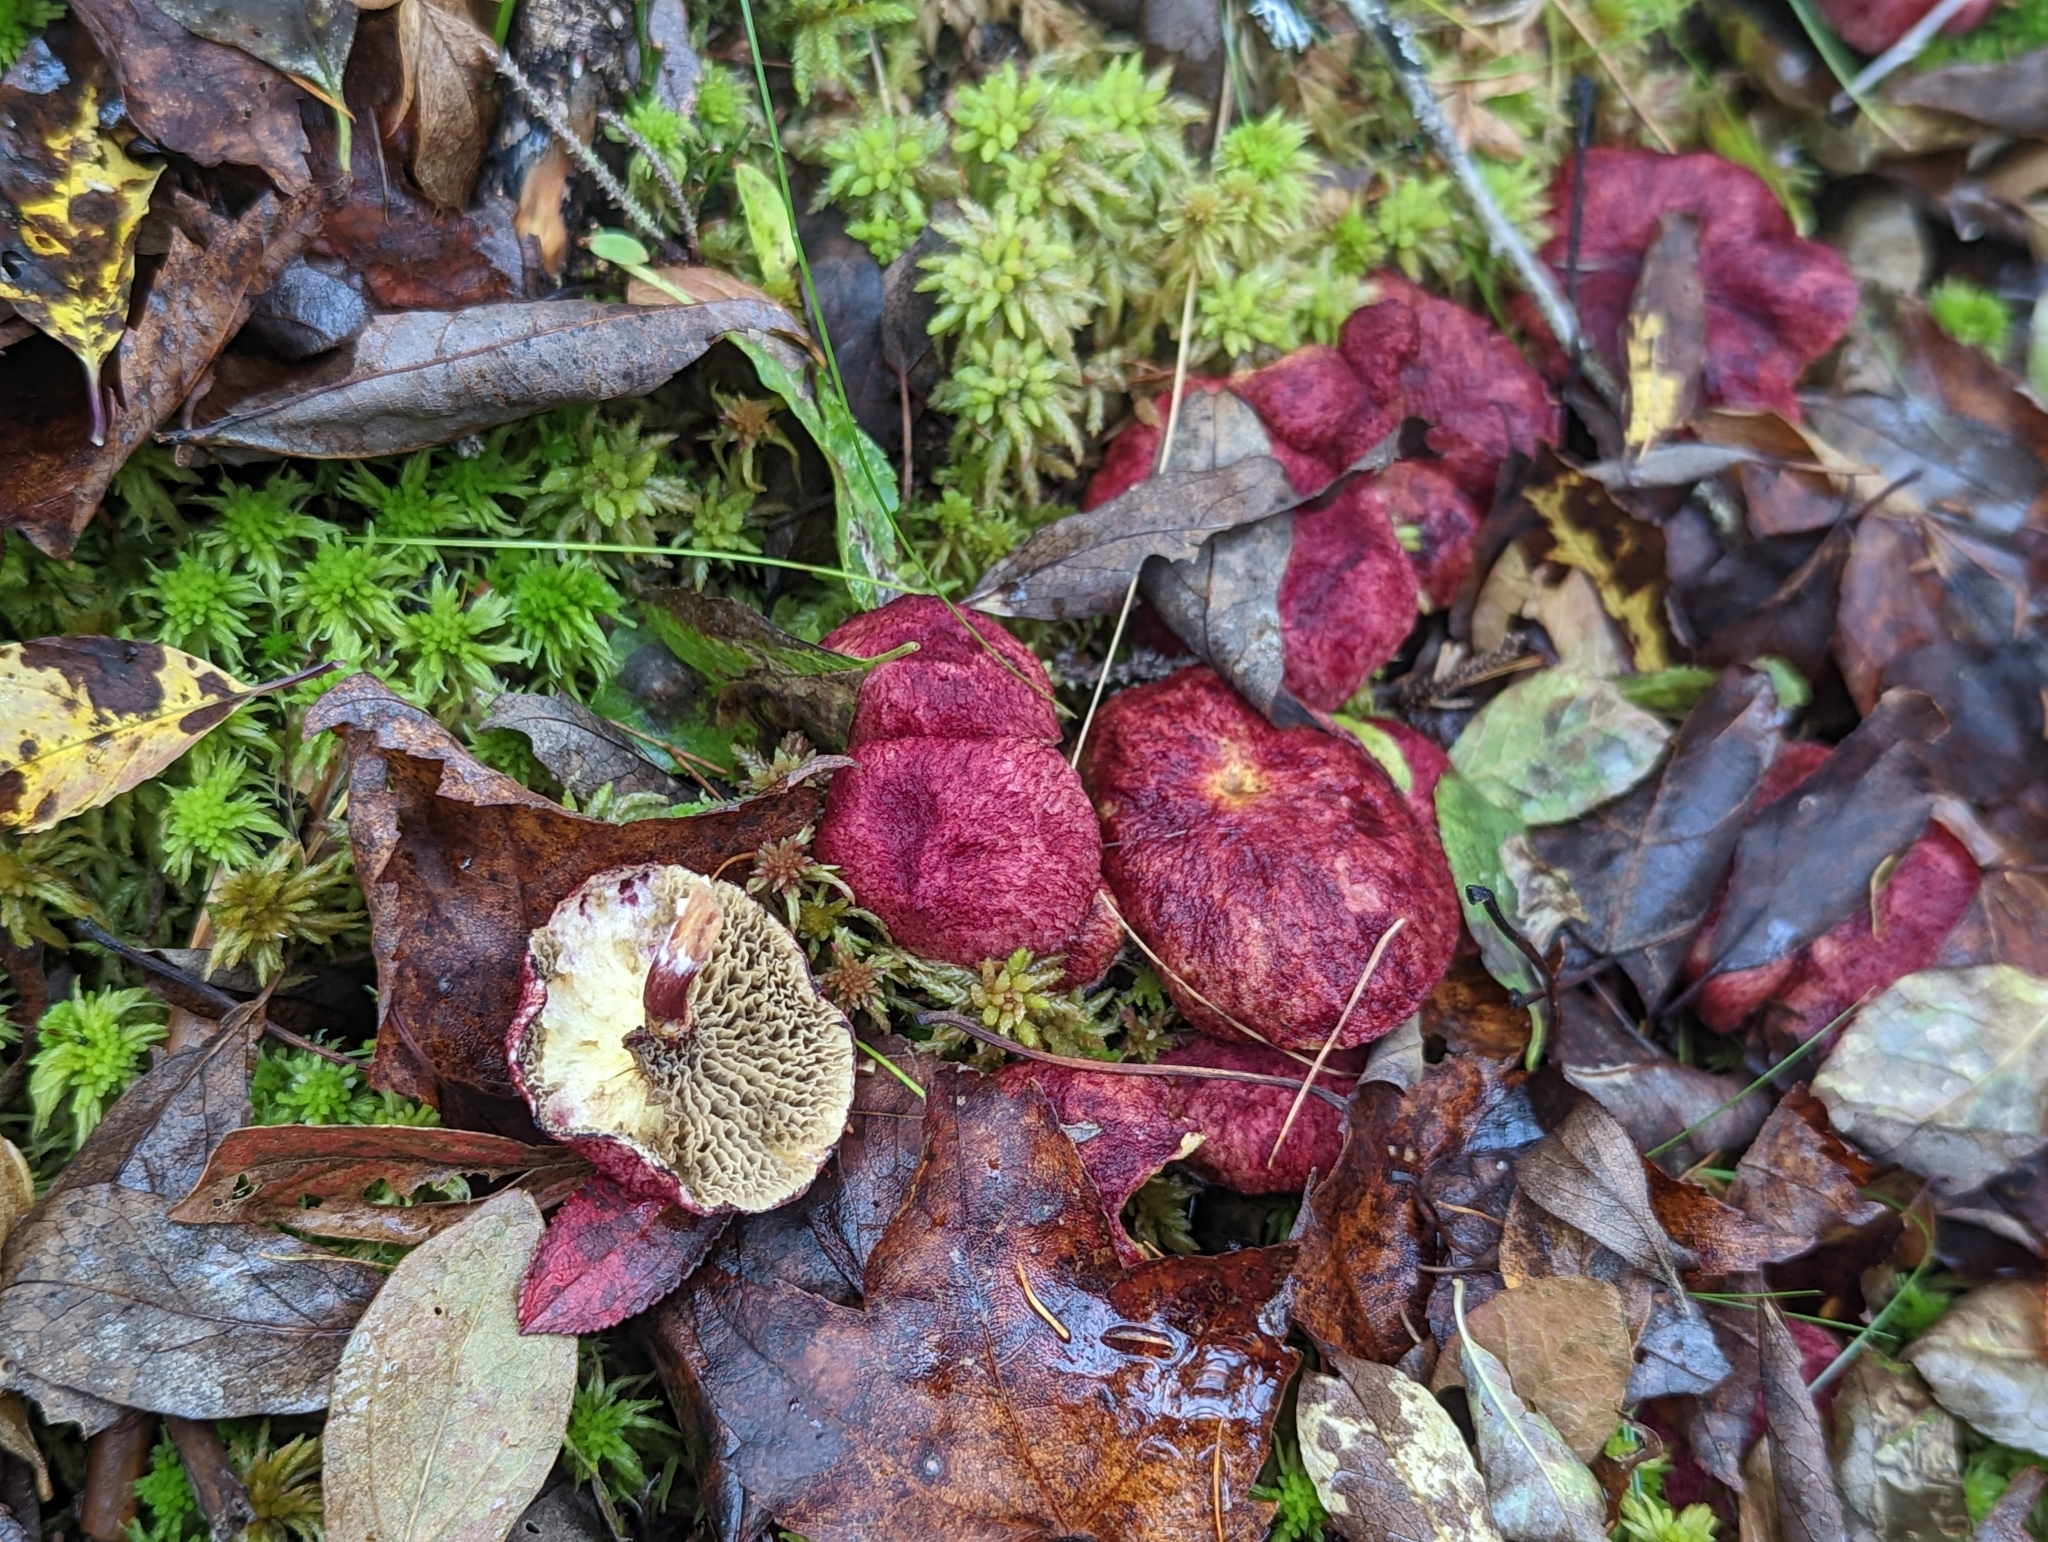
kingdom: Fungi
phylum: Basidiomycota
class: Agaricomycetes
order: Boletales
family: Boletaceae
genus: Boletus
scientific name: Boletus paluster
